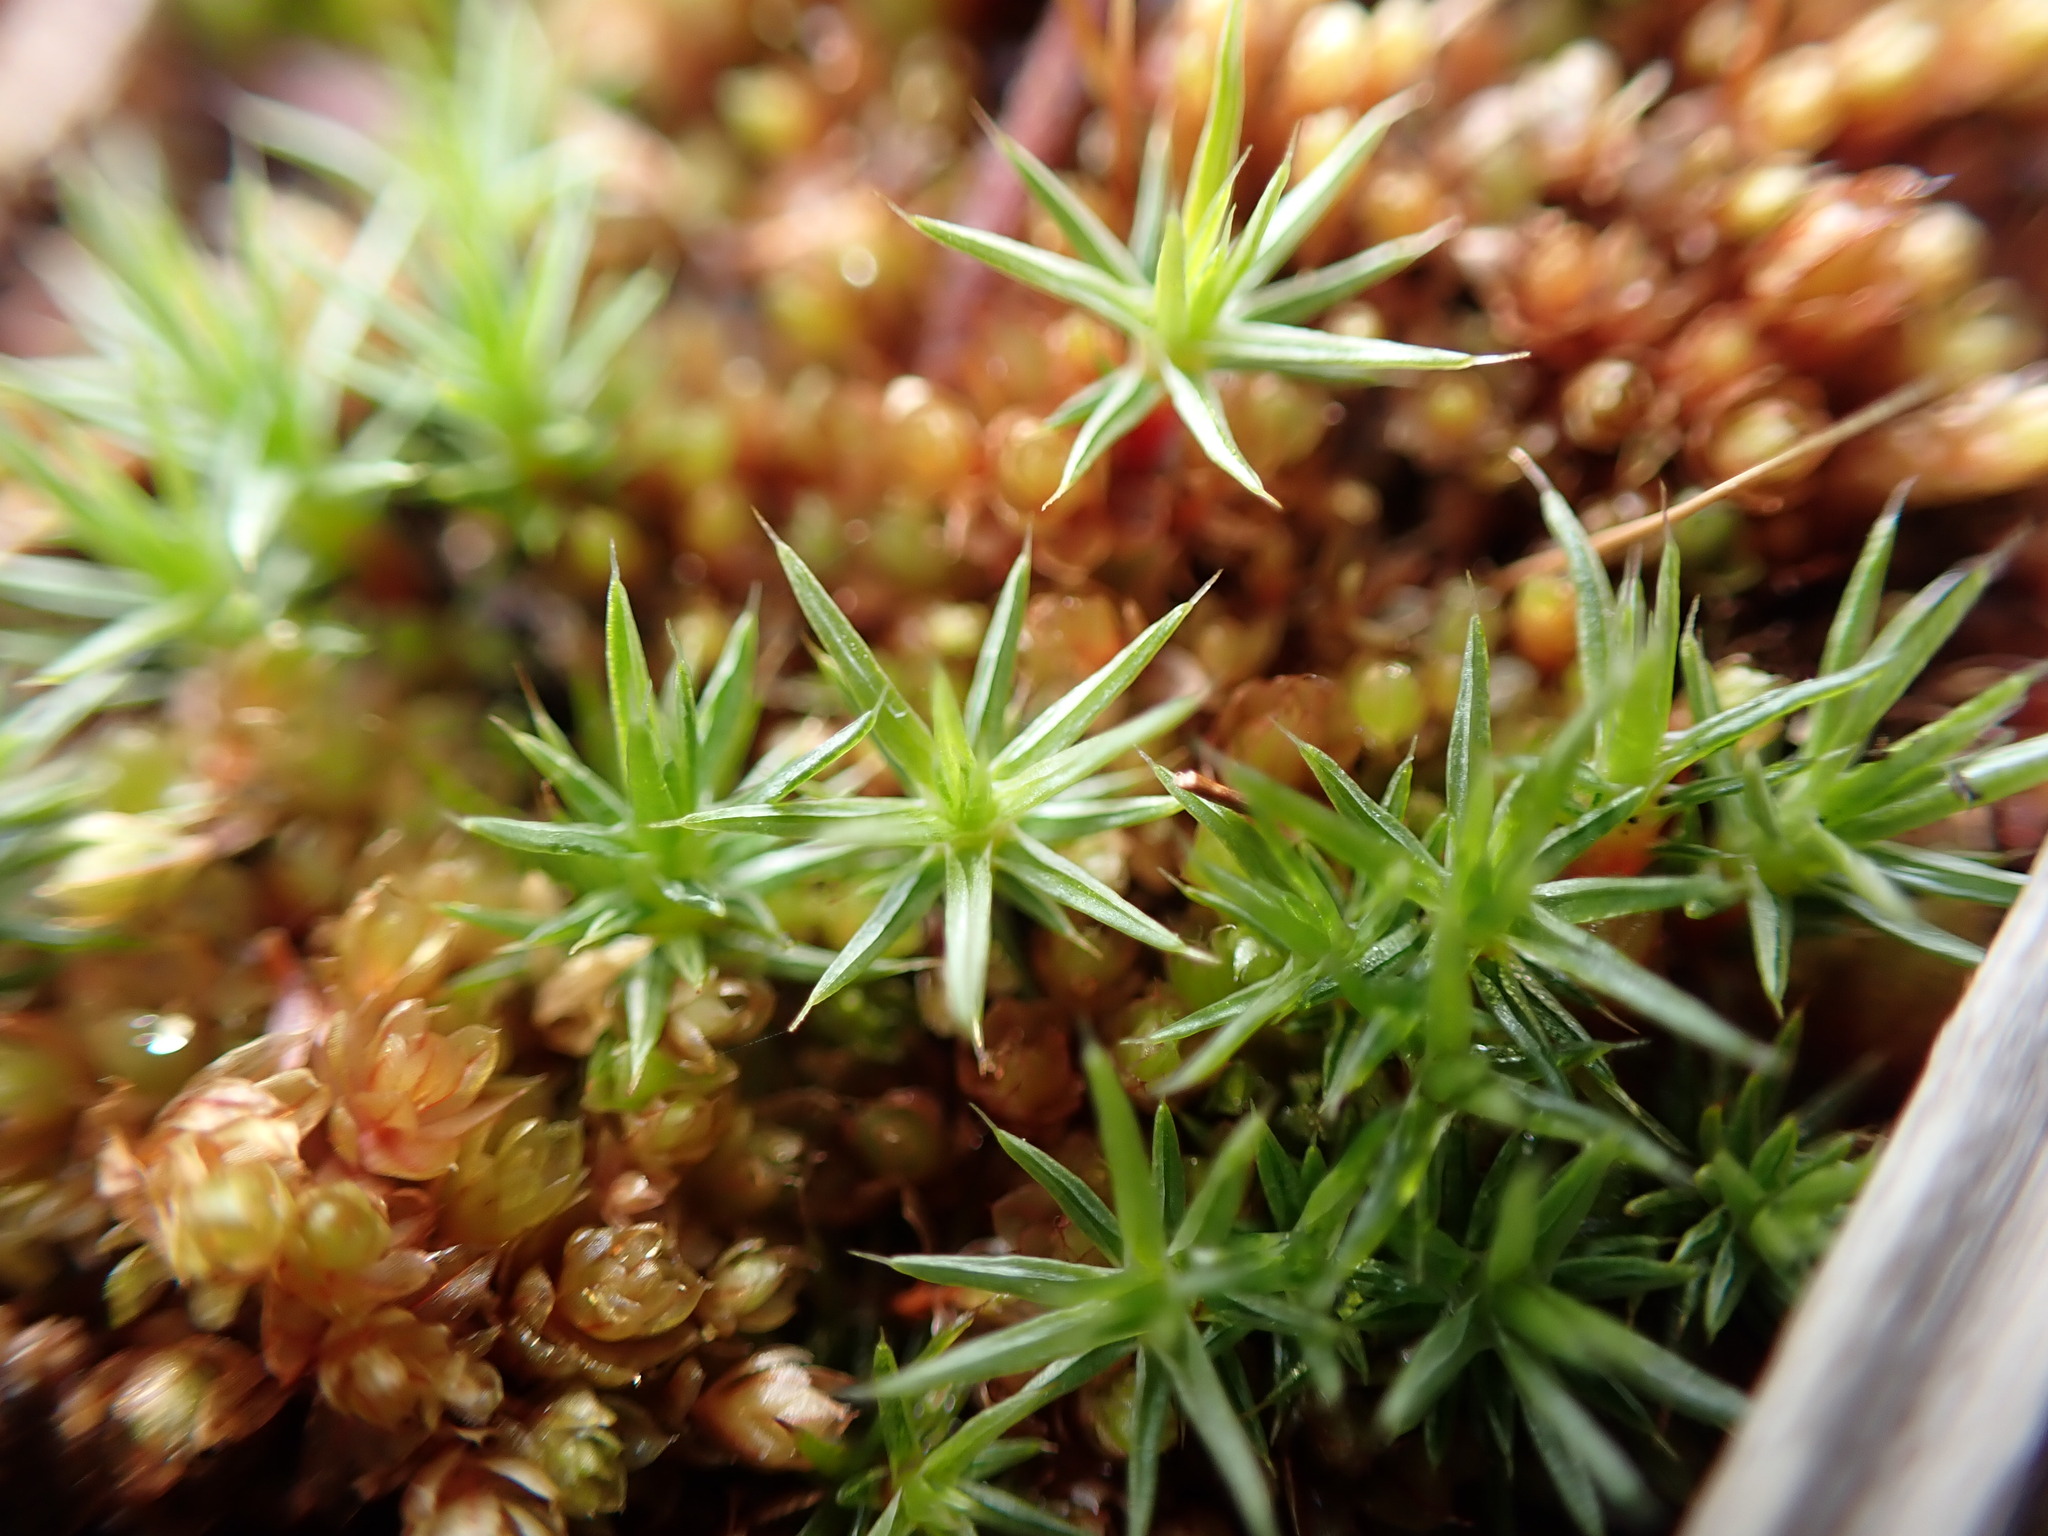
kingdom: Plantae
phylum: Bryophyta
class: Polytrichopsida
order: Polytrichales
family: Polytrichaceae
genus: Polytrichum
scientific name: Polytrichum juniperinum
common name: Juniper haircap moss
